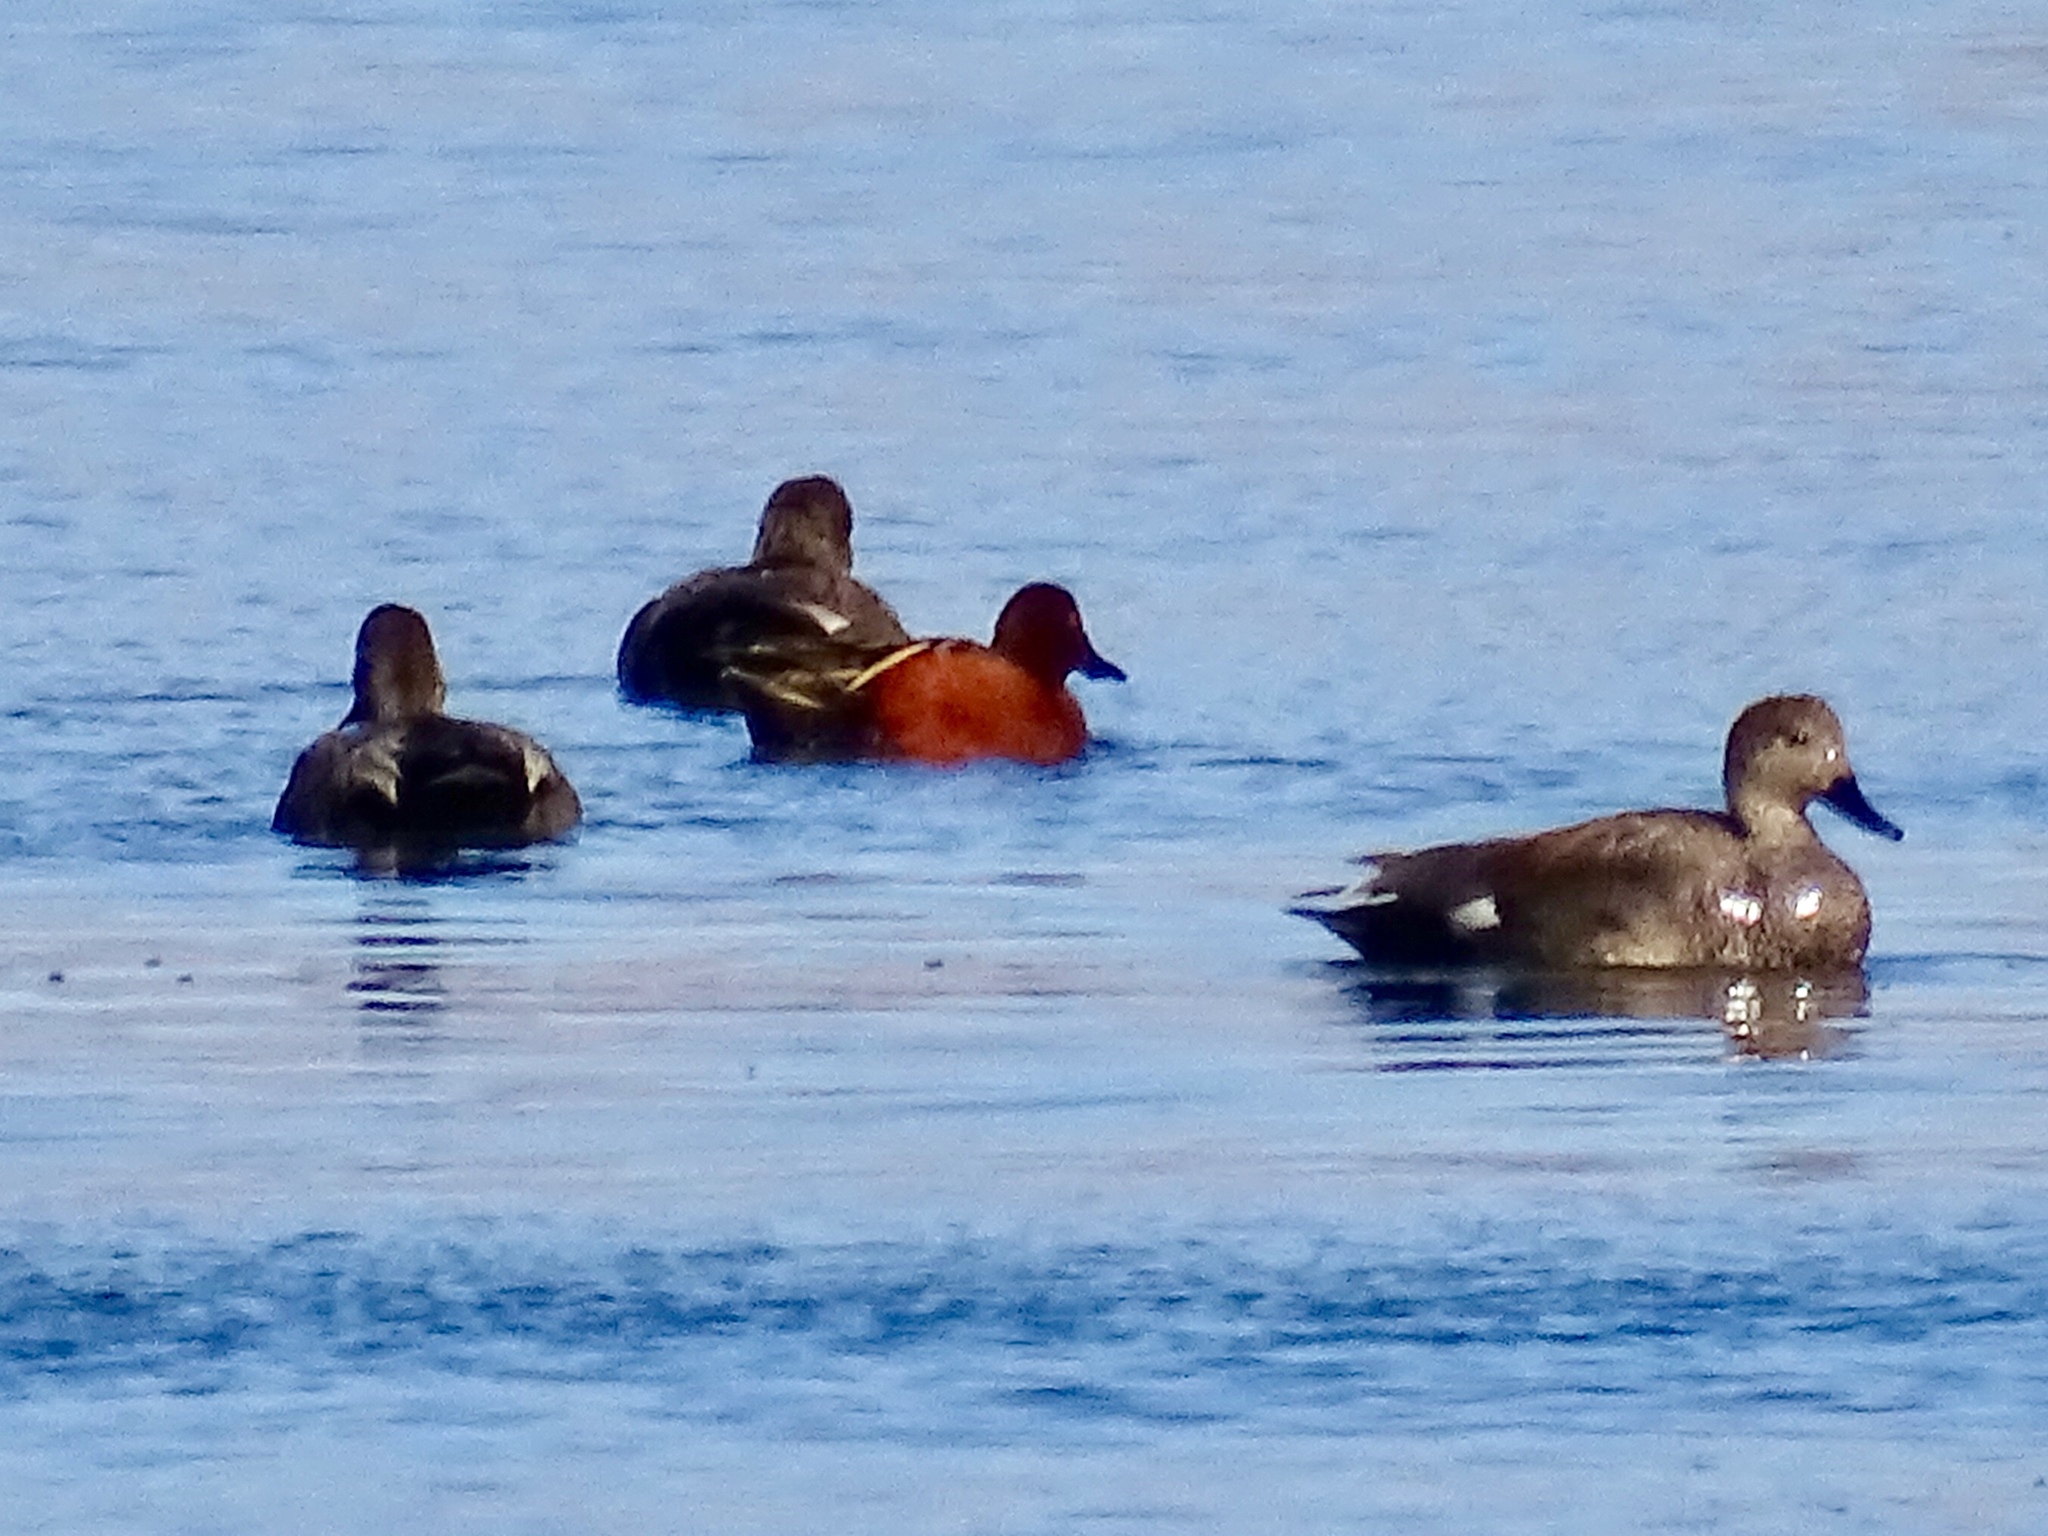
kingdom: Animalia
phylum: Chordata
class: Aves
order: Anseriformes
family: Anatidae
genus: Spatula
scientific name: Spatula cyanoptera
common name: Cinnamon teal
